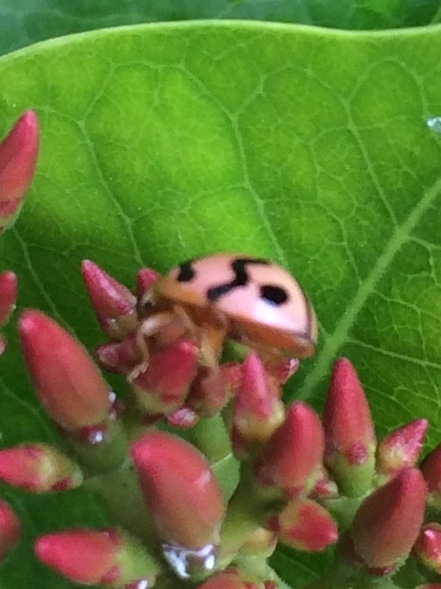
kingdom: Animalia
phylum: Arthropoda
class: Insecta
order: Coleoptera
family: Coccinellidae
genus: Cheilomenes
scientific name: Cheilomenes sexmaculata
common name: Ladybird beetle
